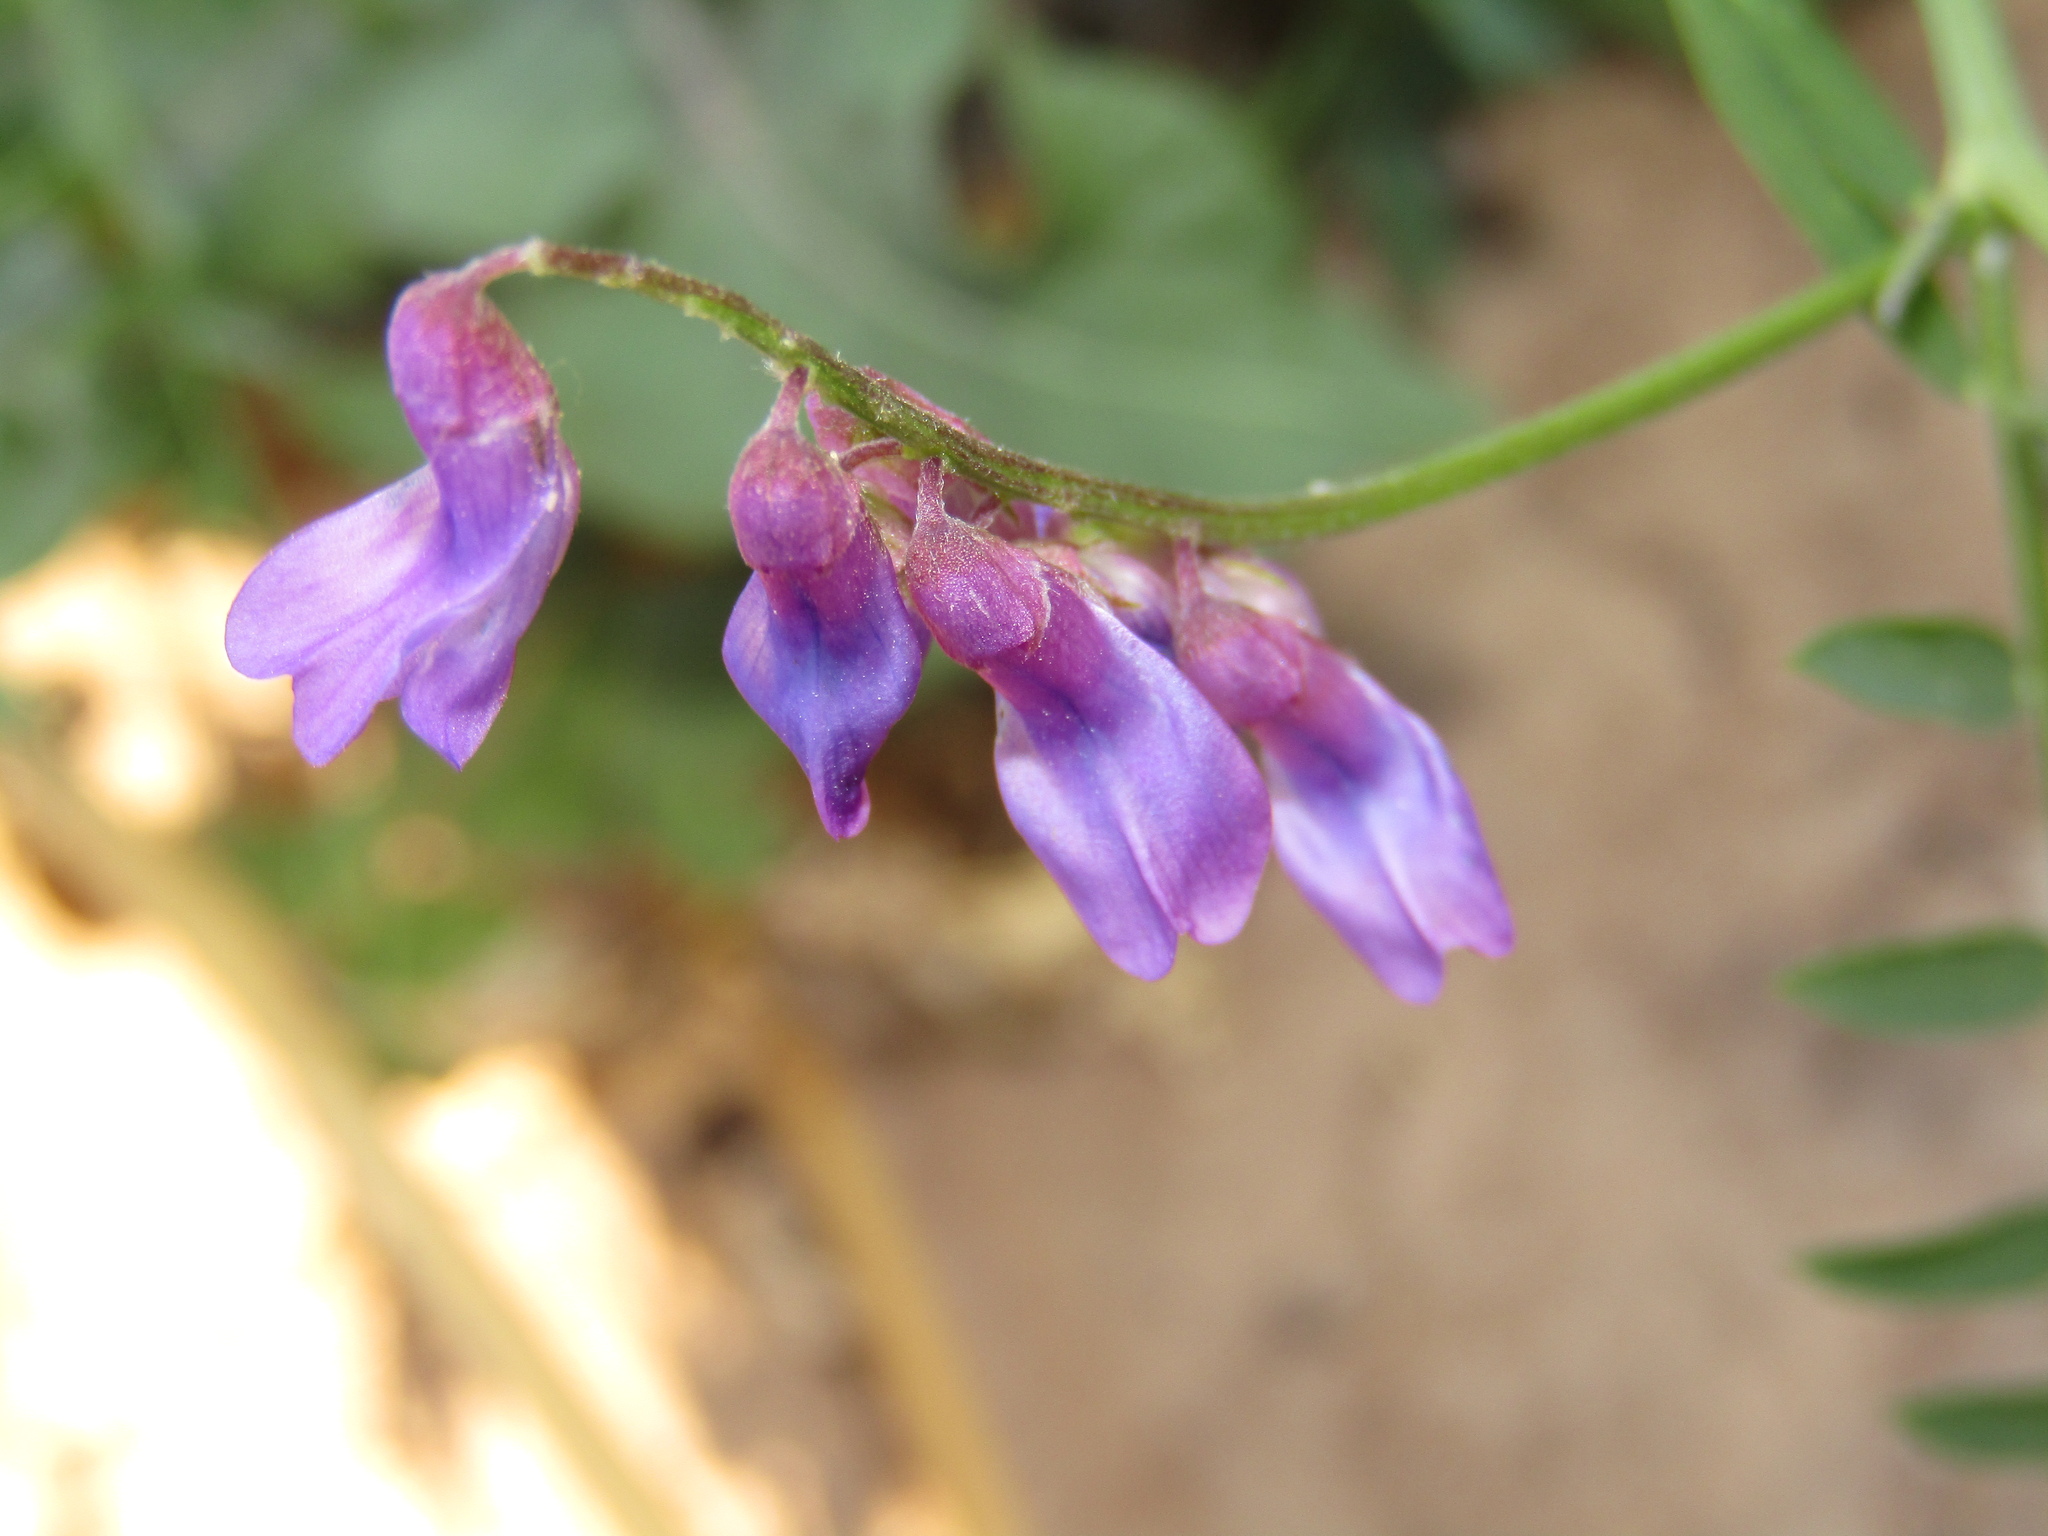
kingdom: Plantae
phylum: Tracheophyta
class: Magnoliopsida
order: Fabales
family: Fabaceae
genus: Vicia
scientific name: Vicia cracca
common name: Bird vetch
